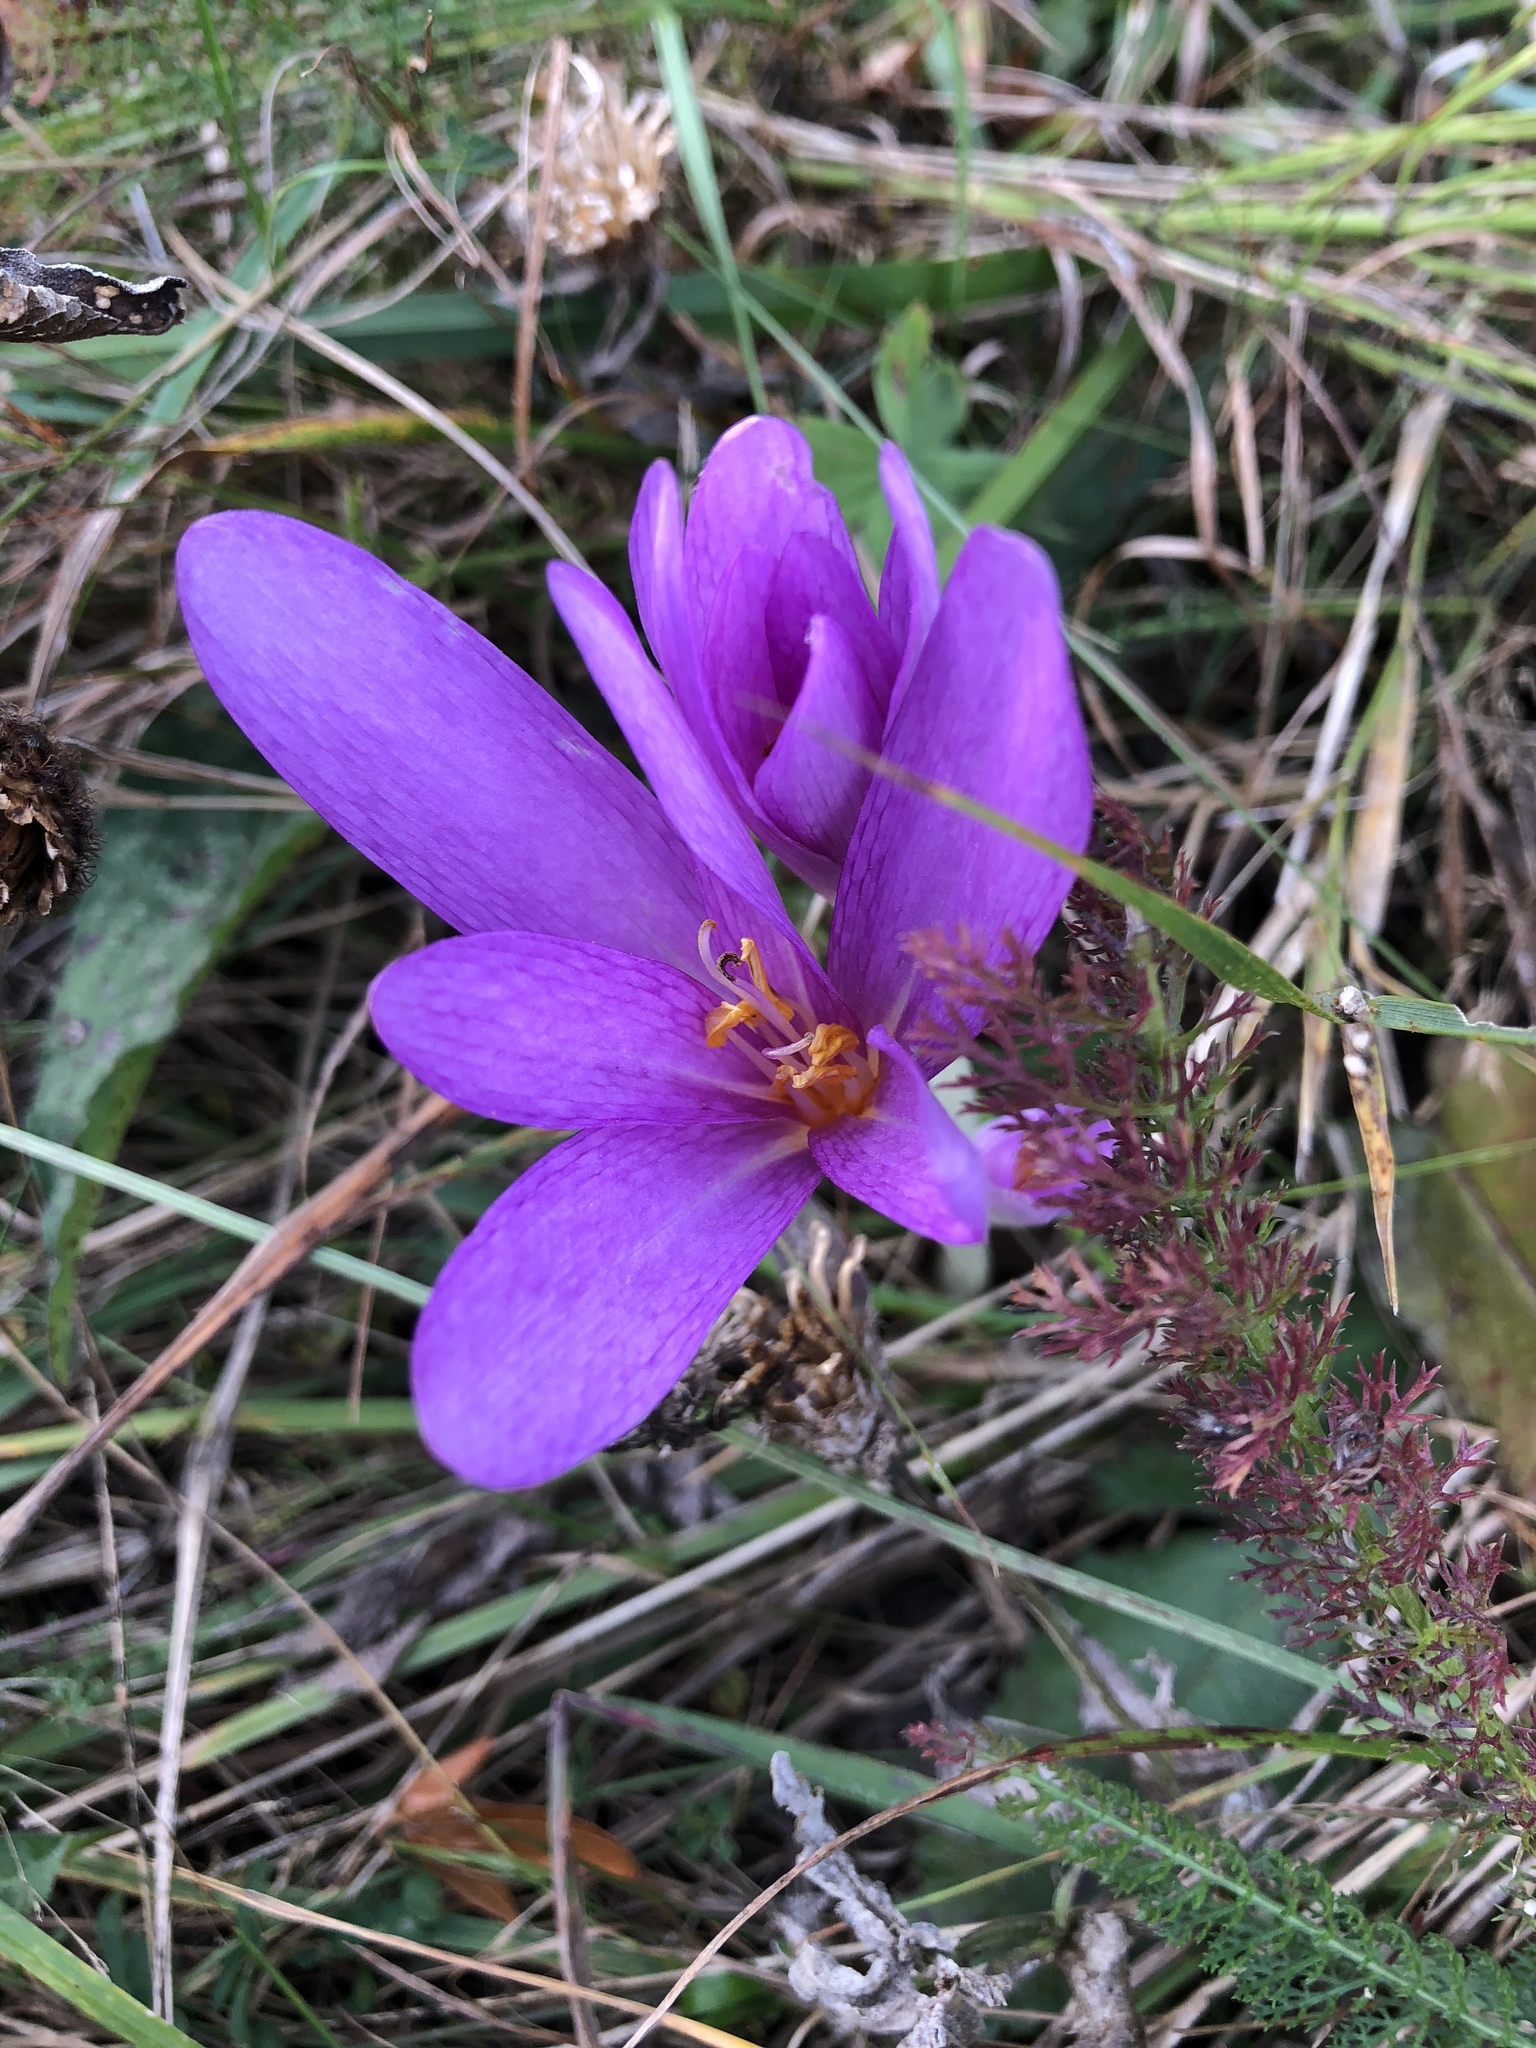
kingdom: Plantae
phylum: Tracheophyta
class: Liliopsida
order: Liliales
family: Colchicaceae
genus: Colchicum
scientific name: Colchicum autumnale
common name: Autumn crocus
